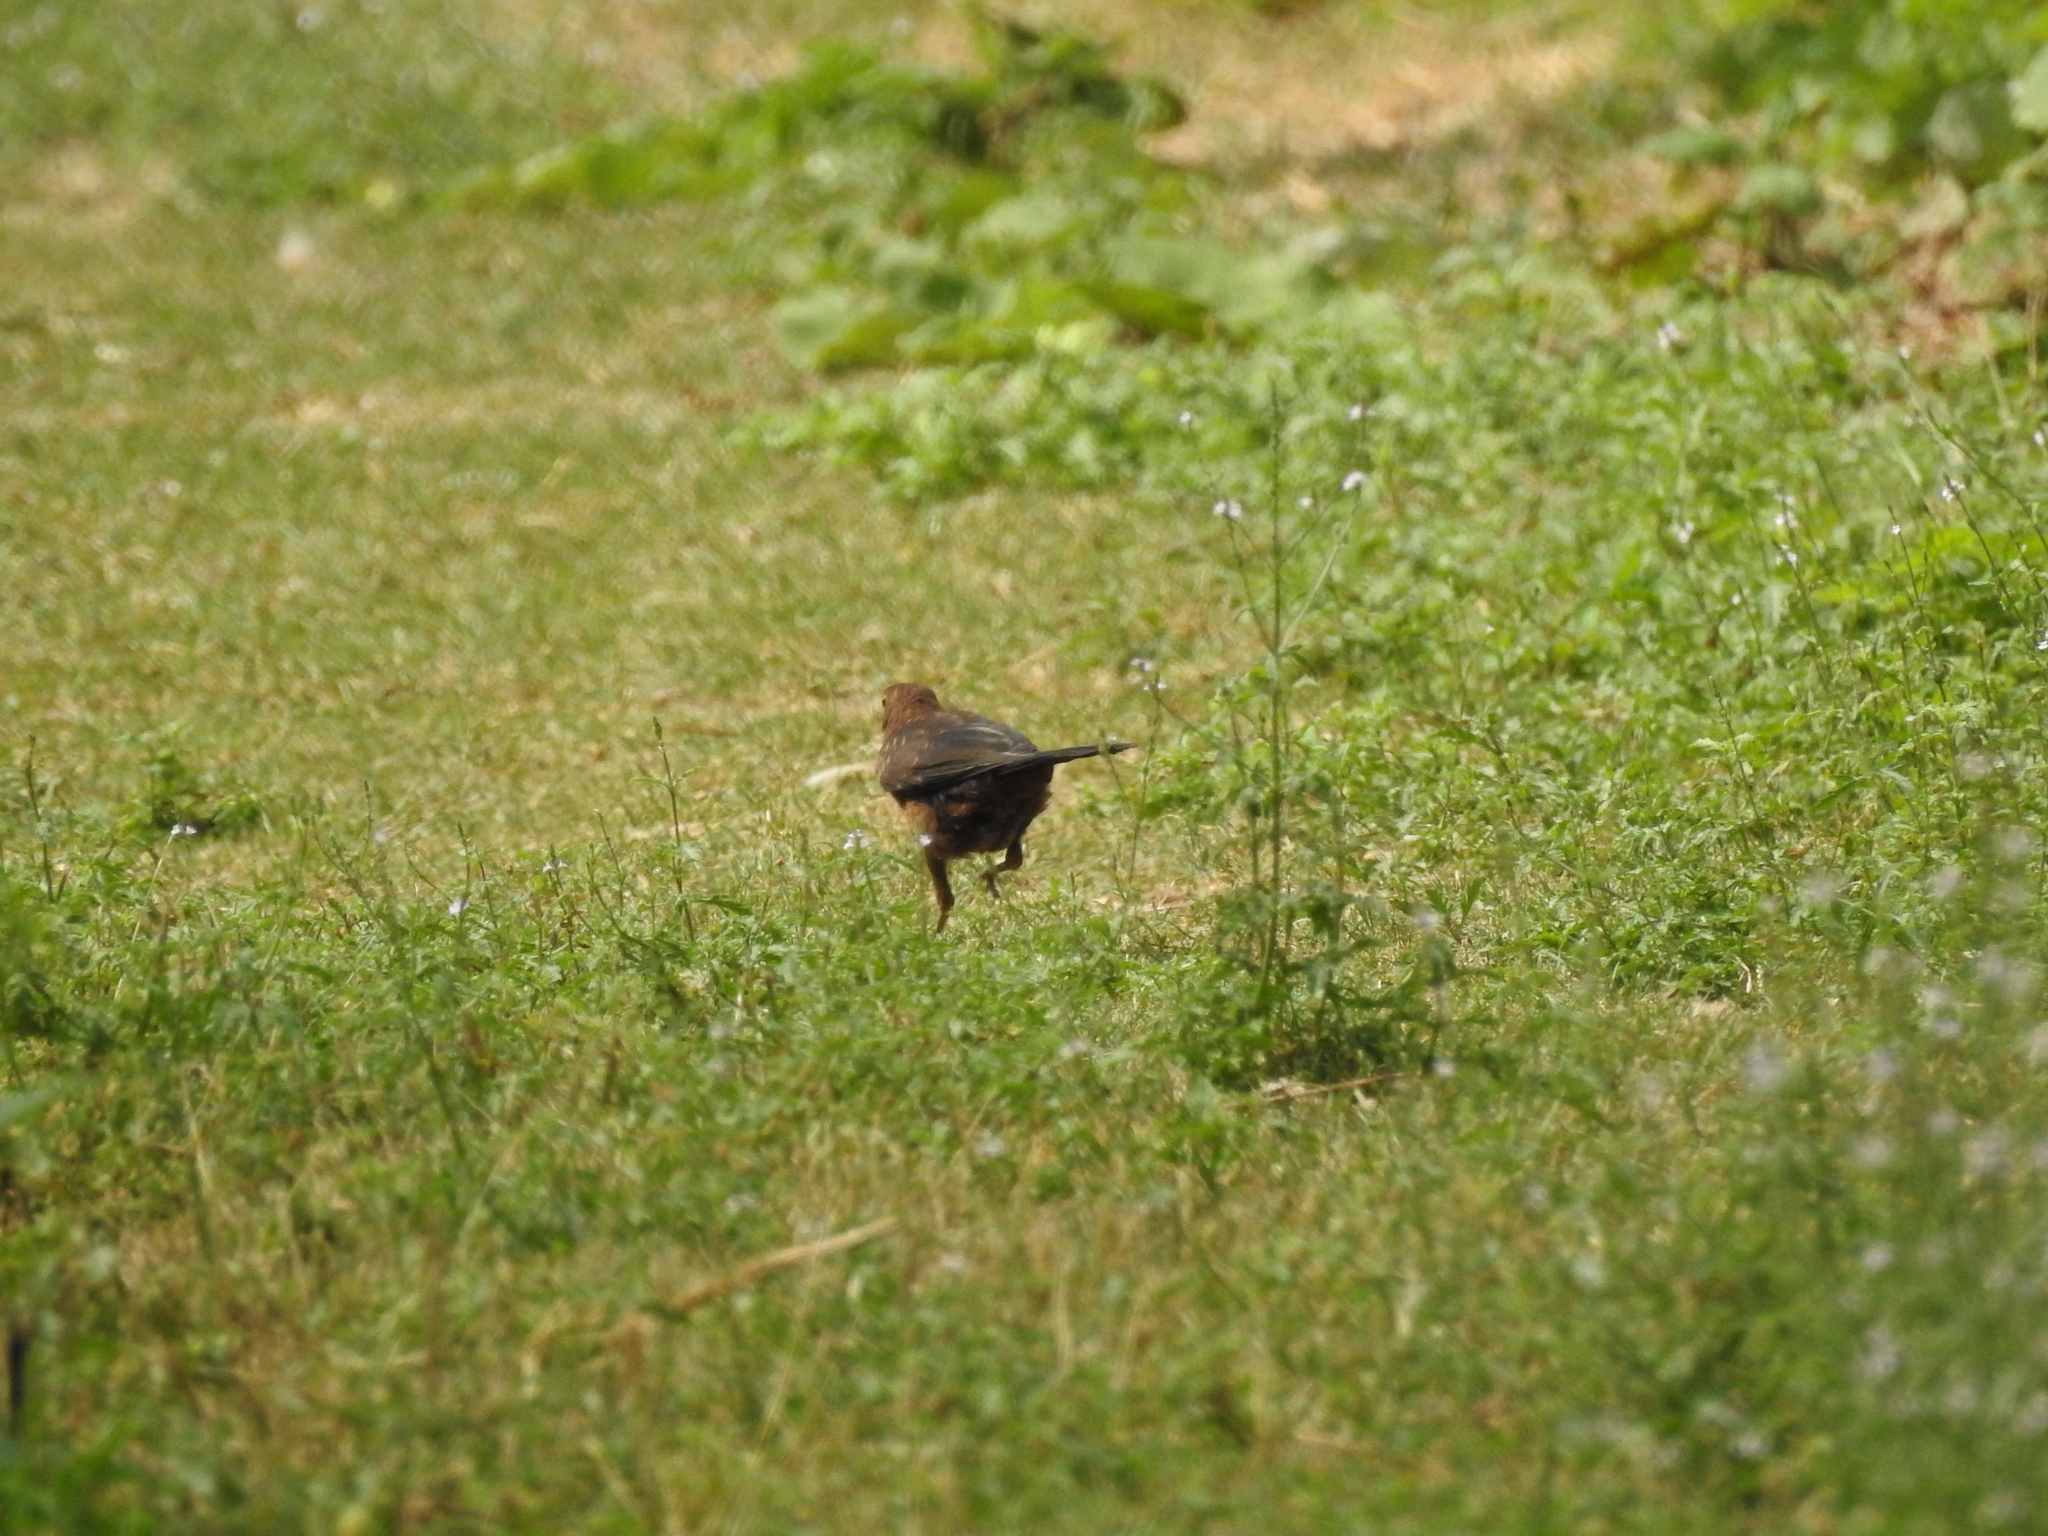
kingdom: Animalia
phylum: Chordata
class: Aves
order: Passeriformes
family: Turdidae
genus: Turdus
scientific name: Turdus merula
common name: Common blackbird
